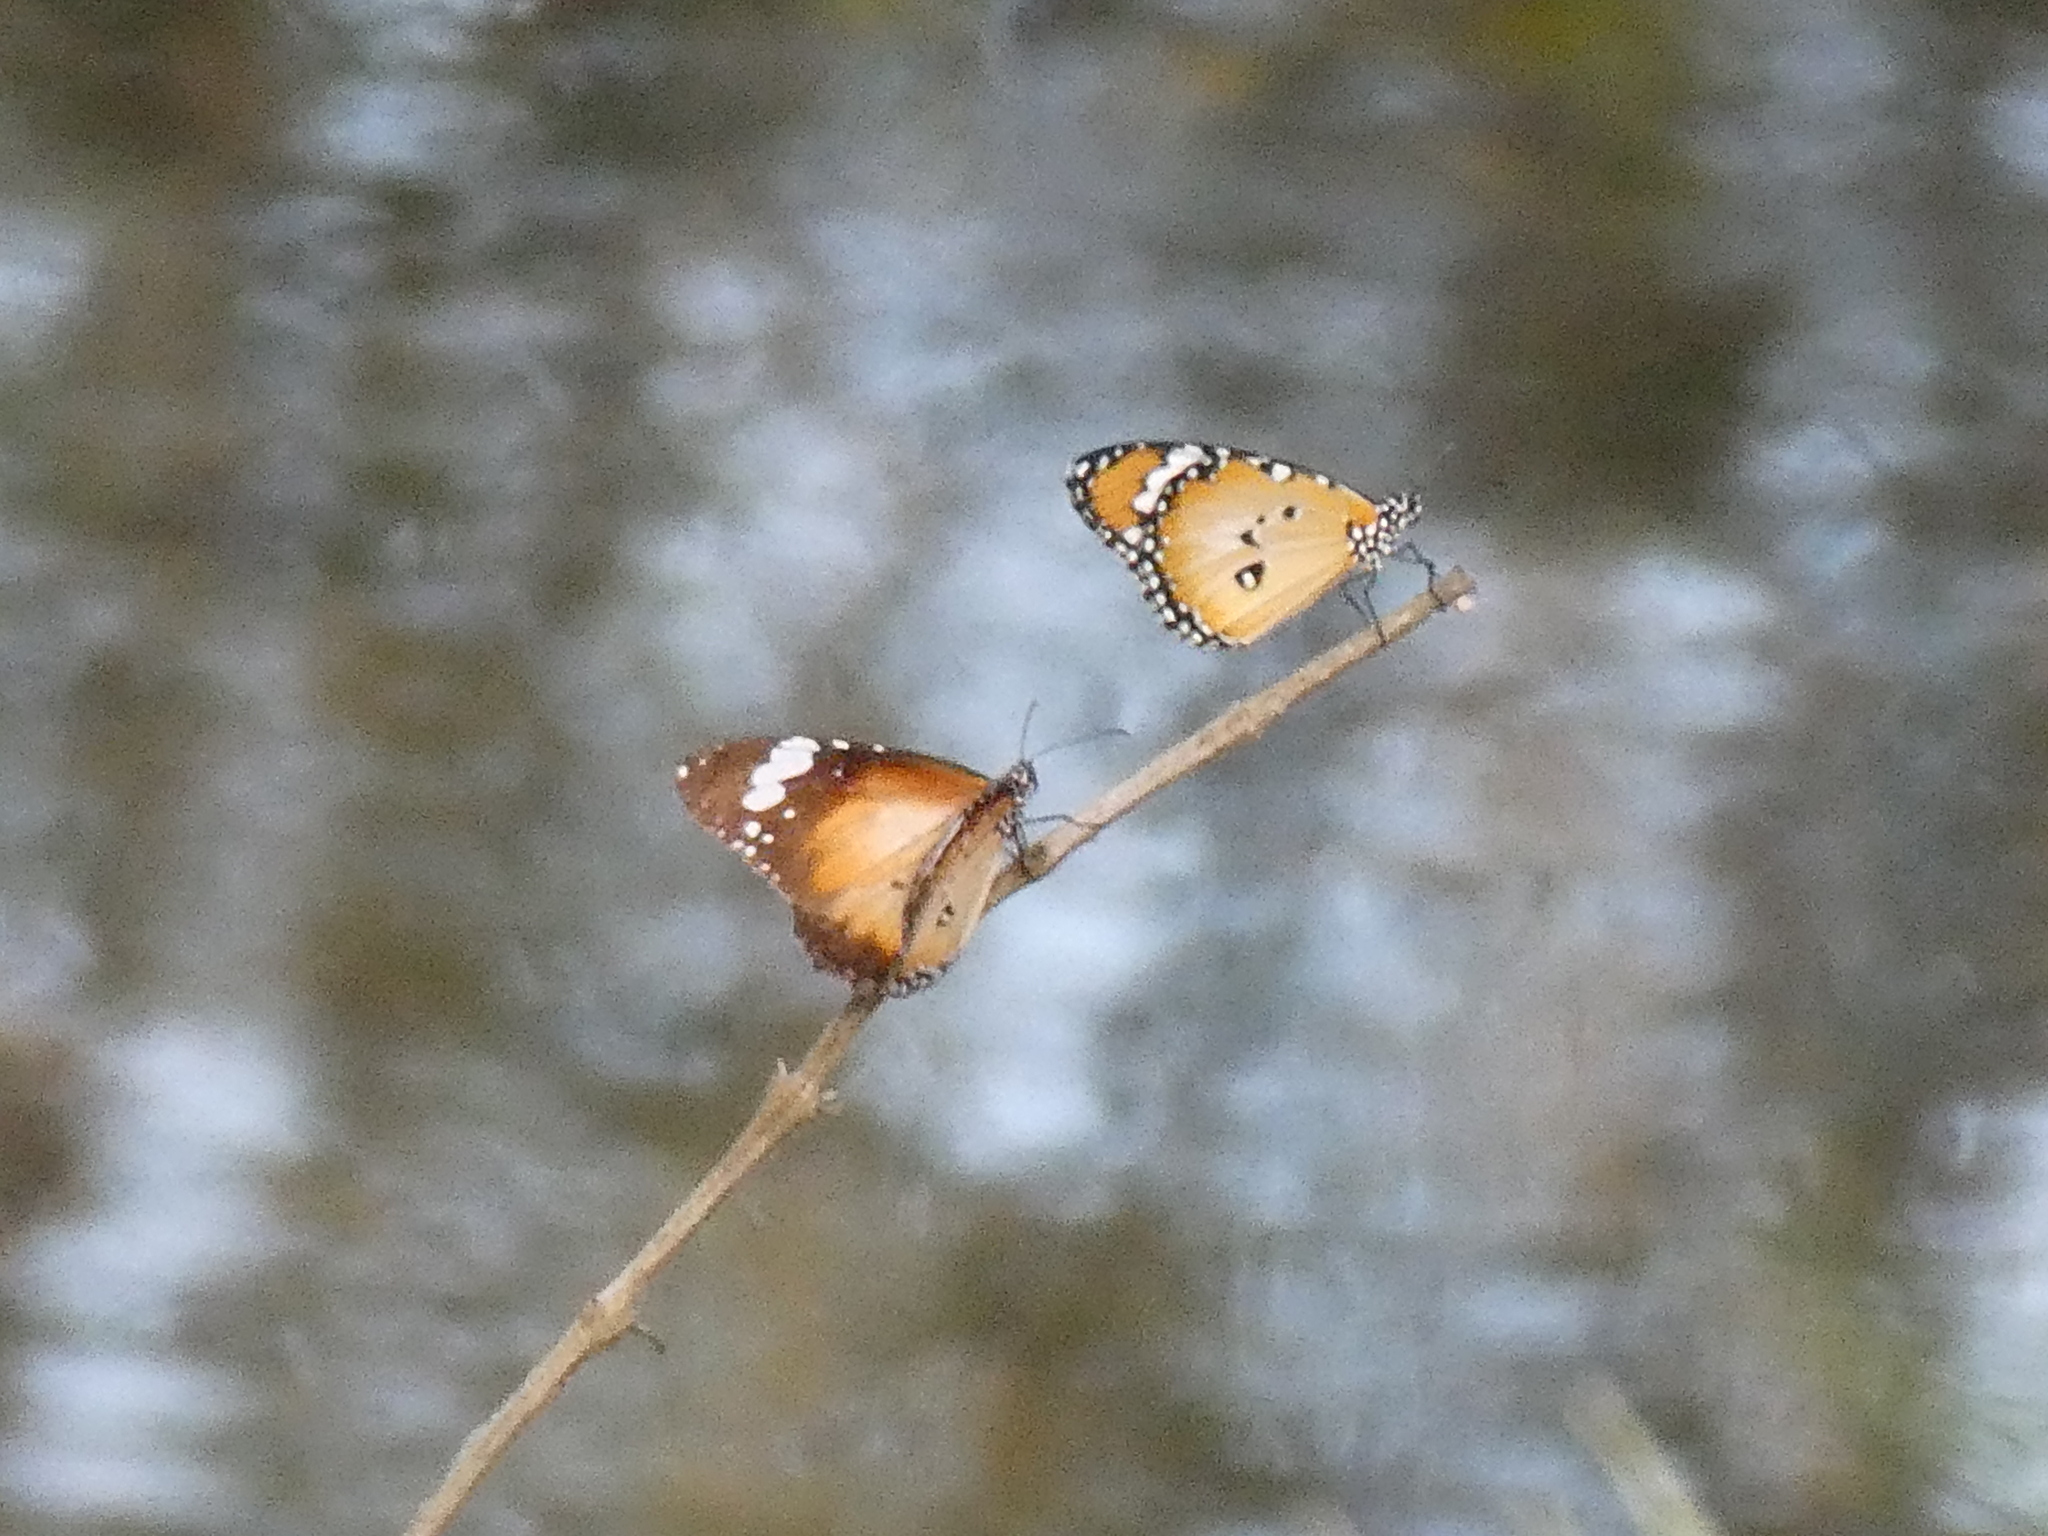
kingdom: Animalia
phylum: Arthropoda
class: Insecta
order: Lepidoptera
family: Nymphalidae
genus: Danaus
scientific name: Danaus chrysippus
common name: Plain tiger
